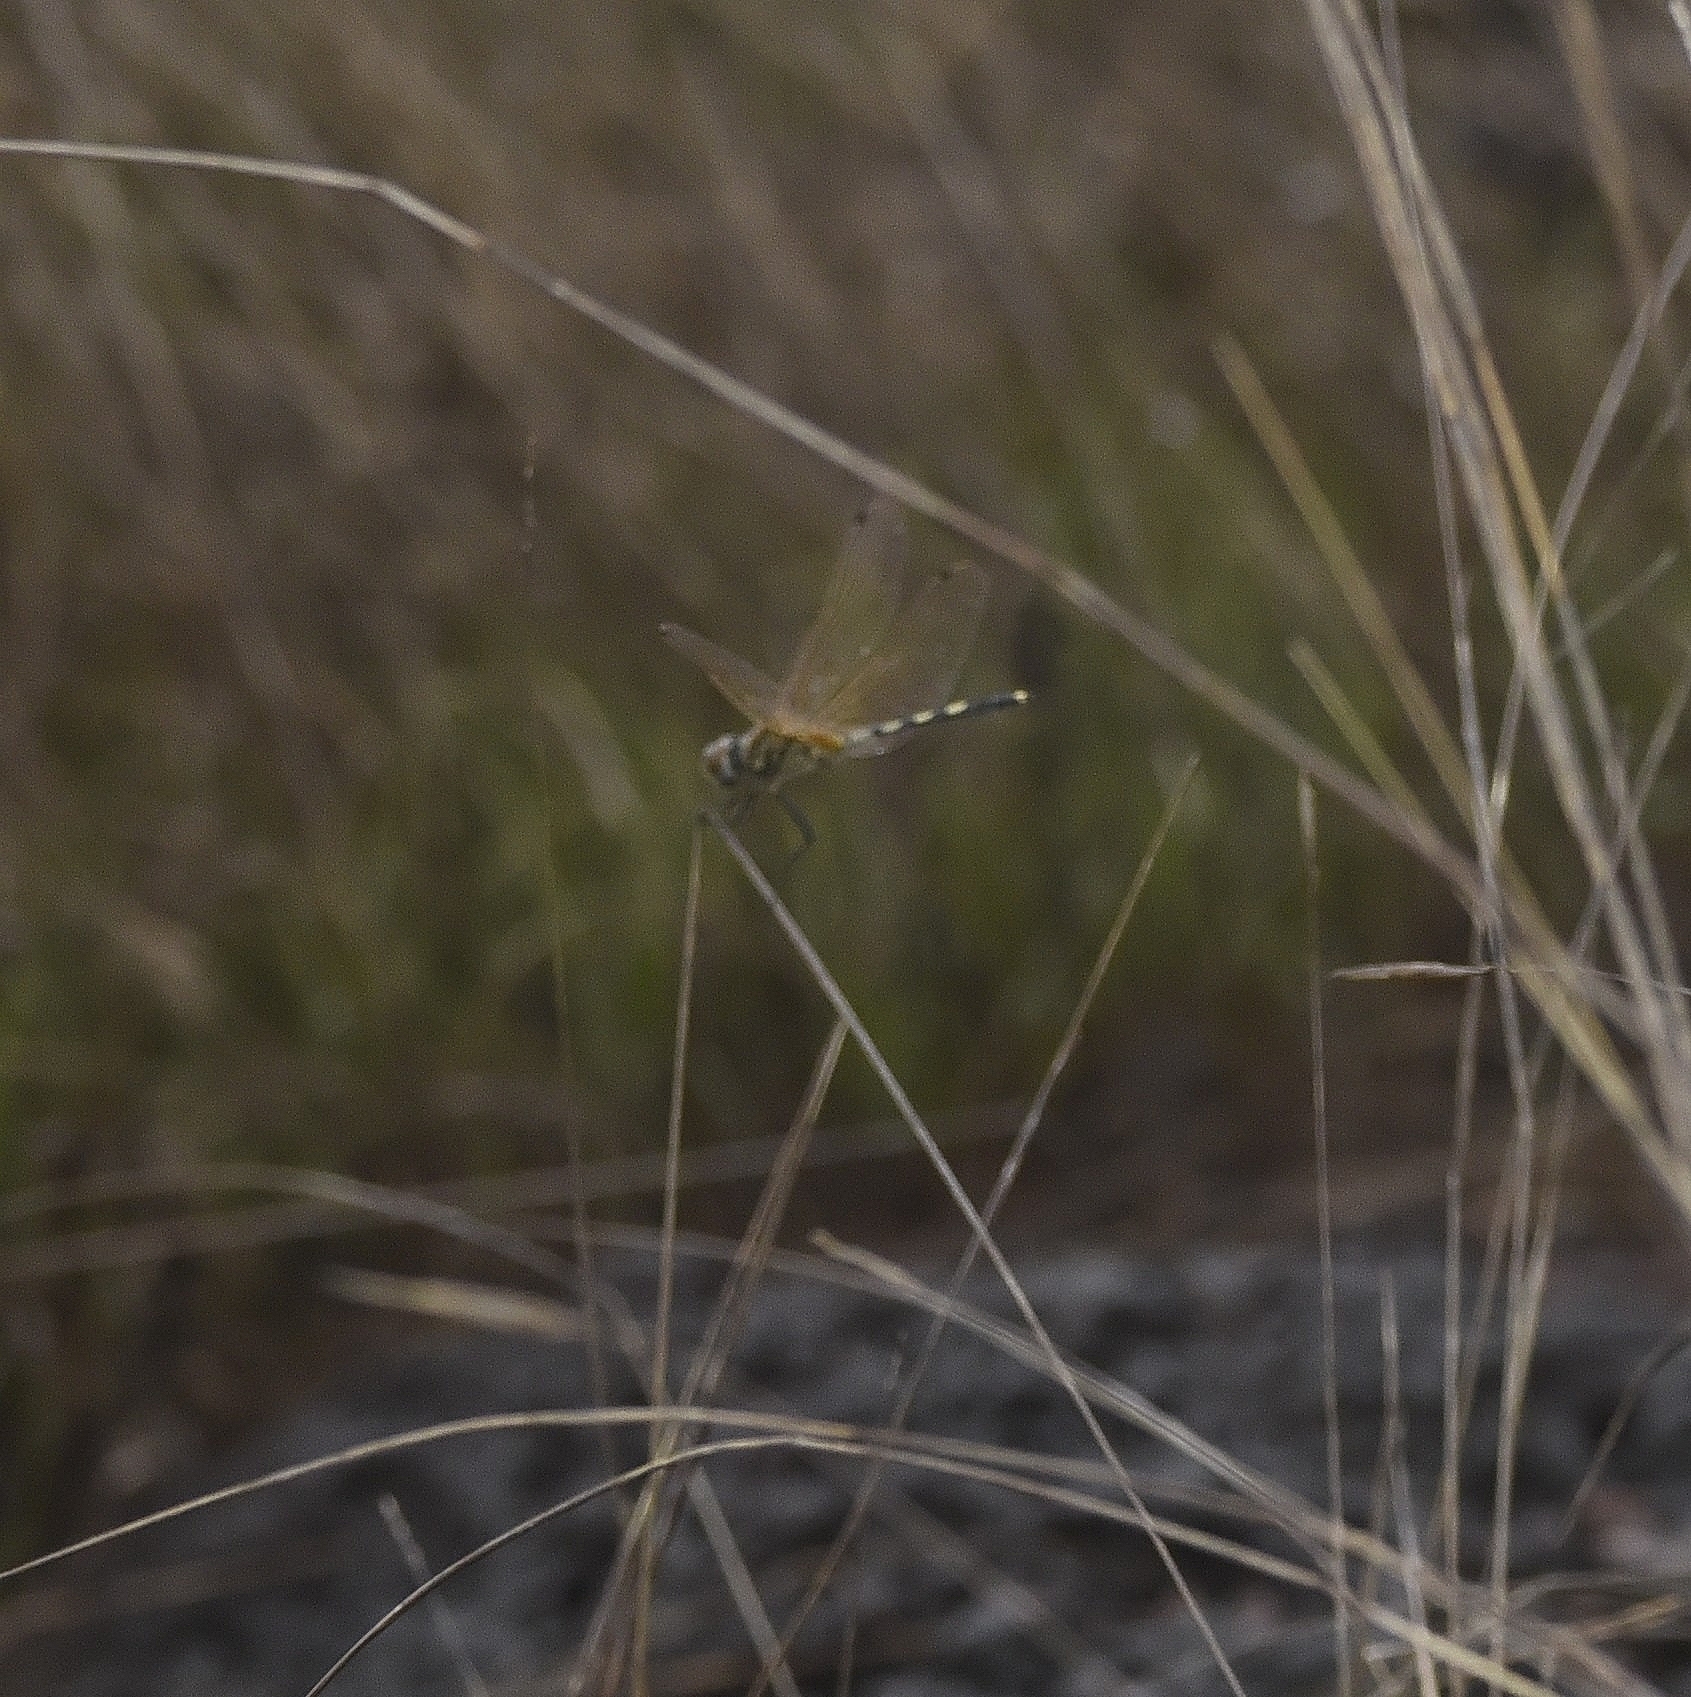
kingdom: Animalia
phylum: Arthropoda
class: Insecta
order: Odonata
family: Libellulidae
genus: Trithemis
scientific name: Trithemis pallidinervis
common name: Dancing dropwing
